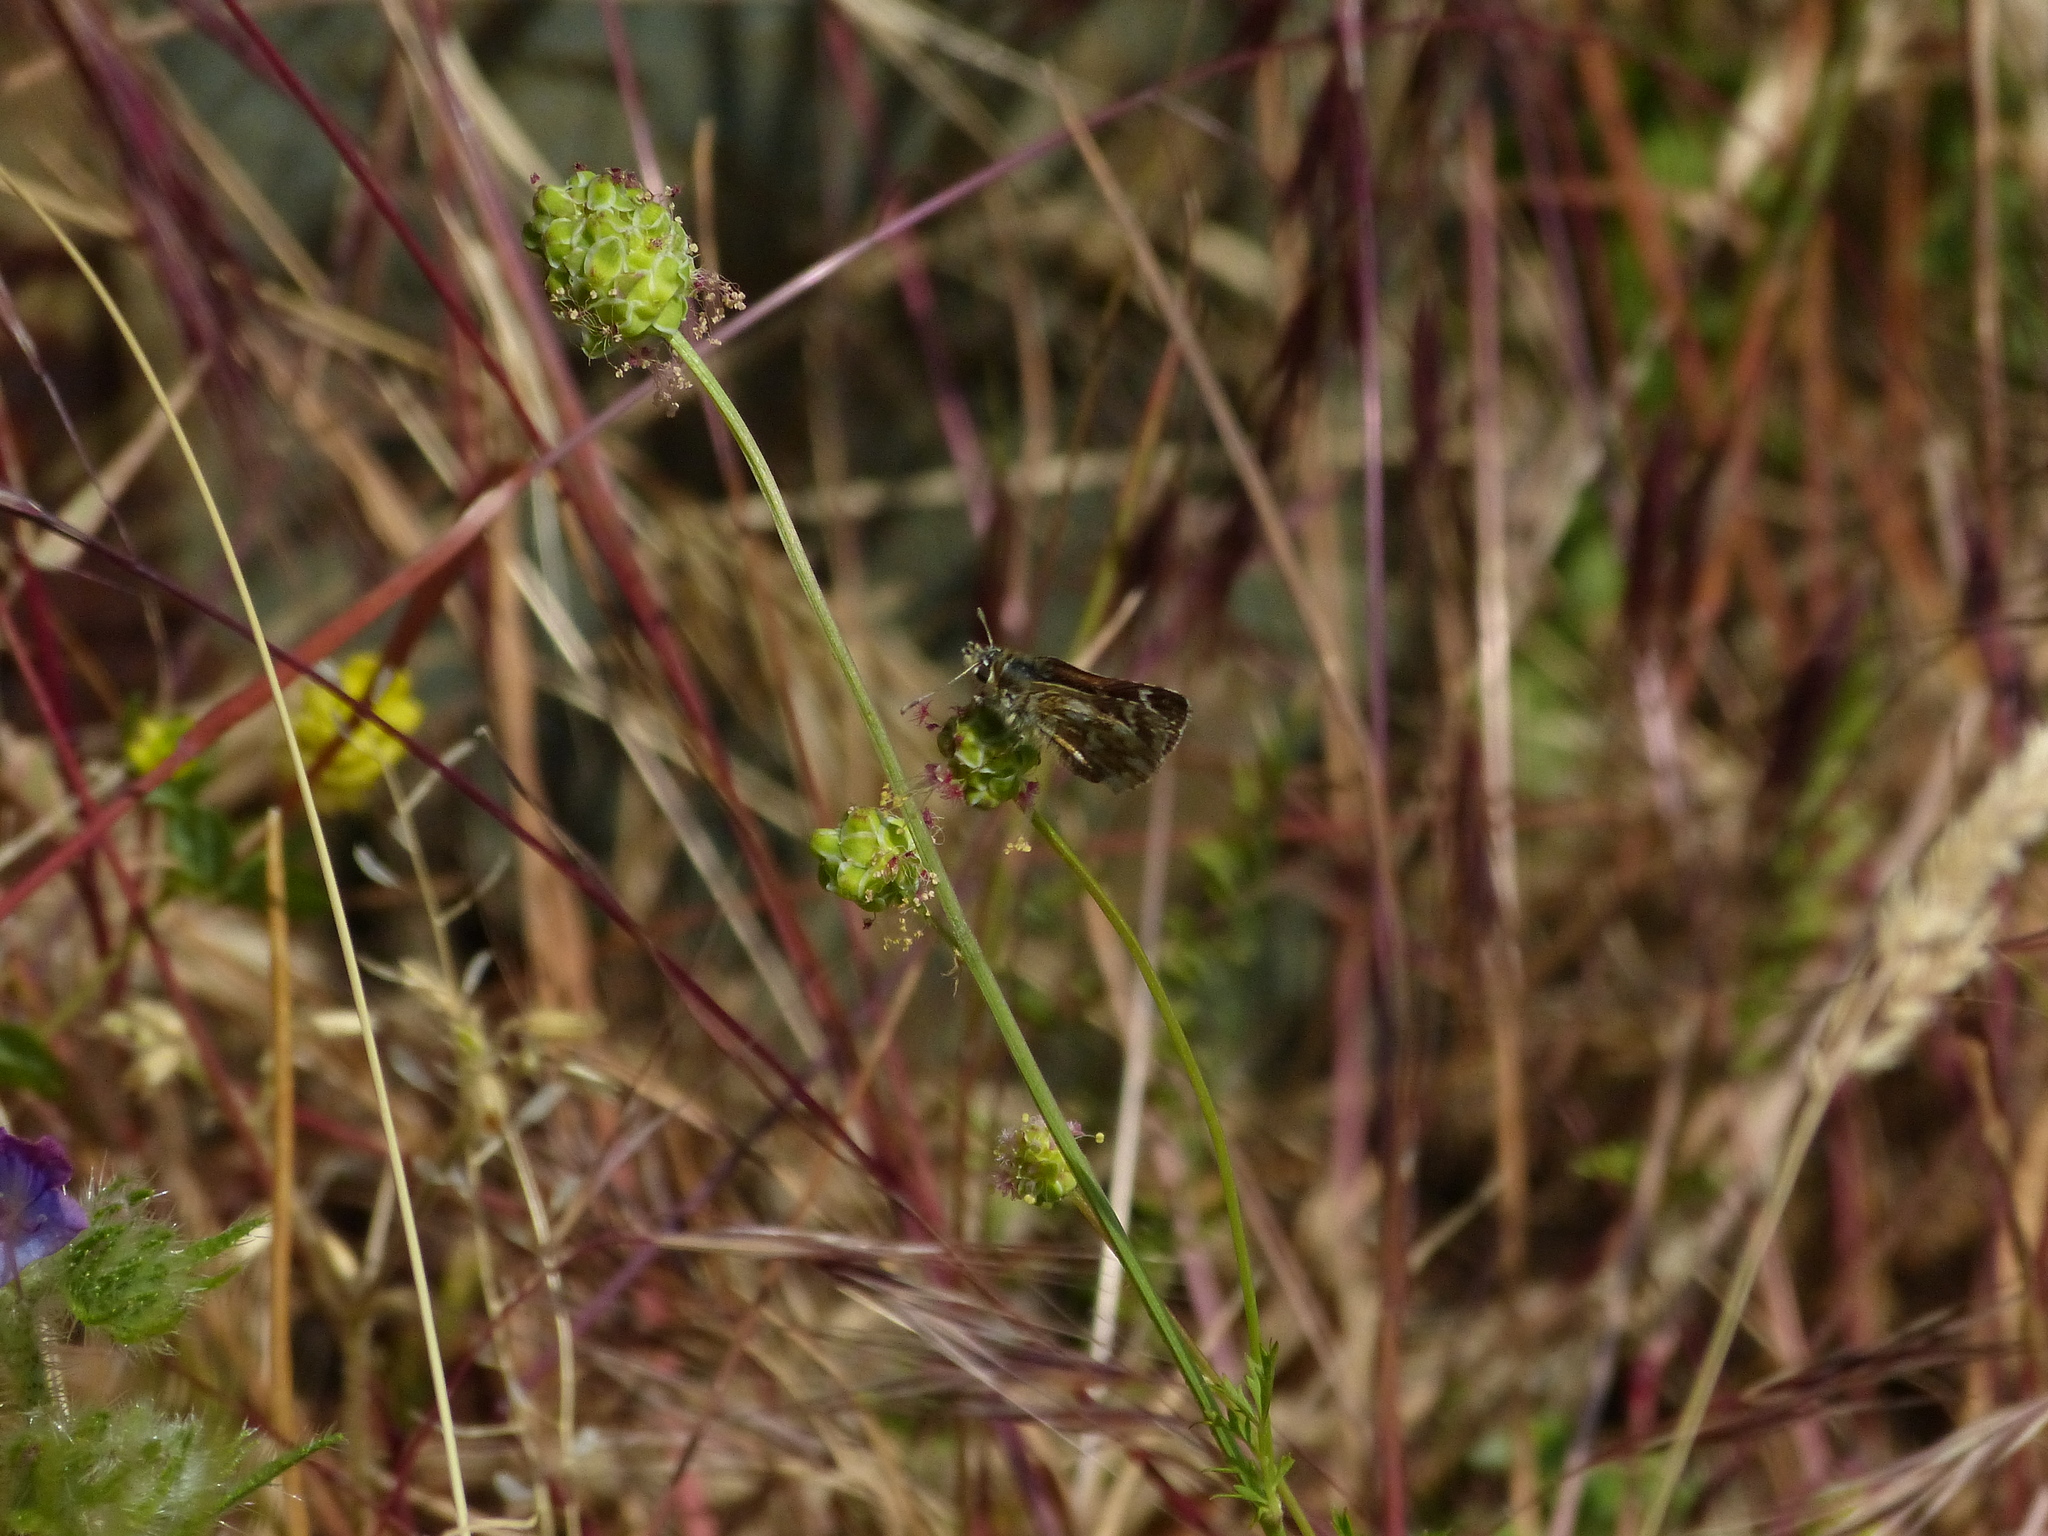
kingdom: Animalia
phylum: Arthropoda
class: Insecta
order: Lepidoptera
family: Hesperiidae
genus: Spialia
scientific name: Spialia sertorius
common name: Red underwing skipper
